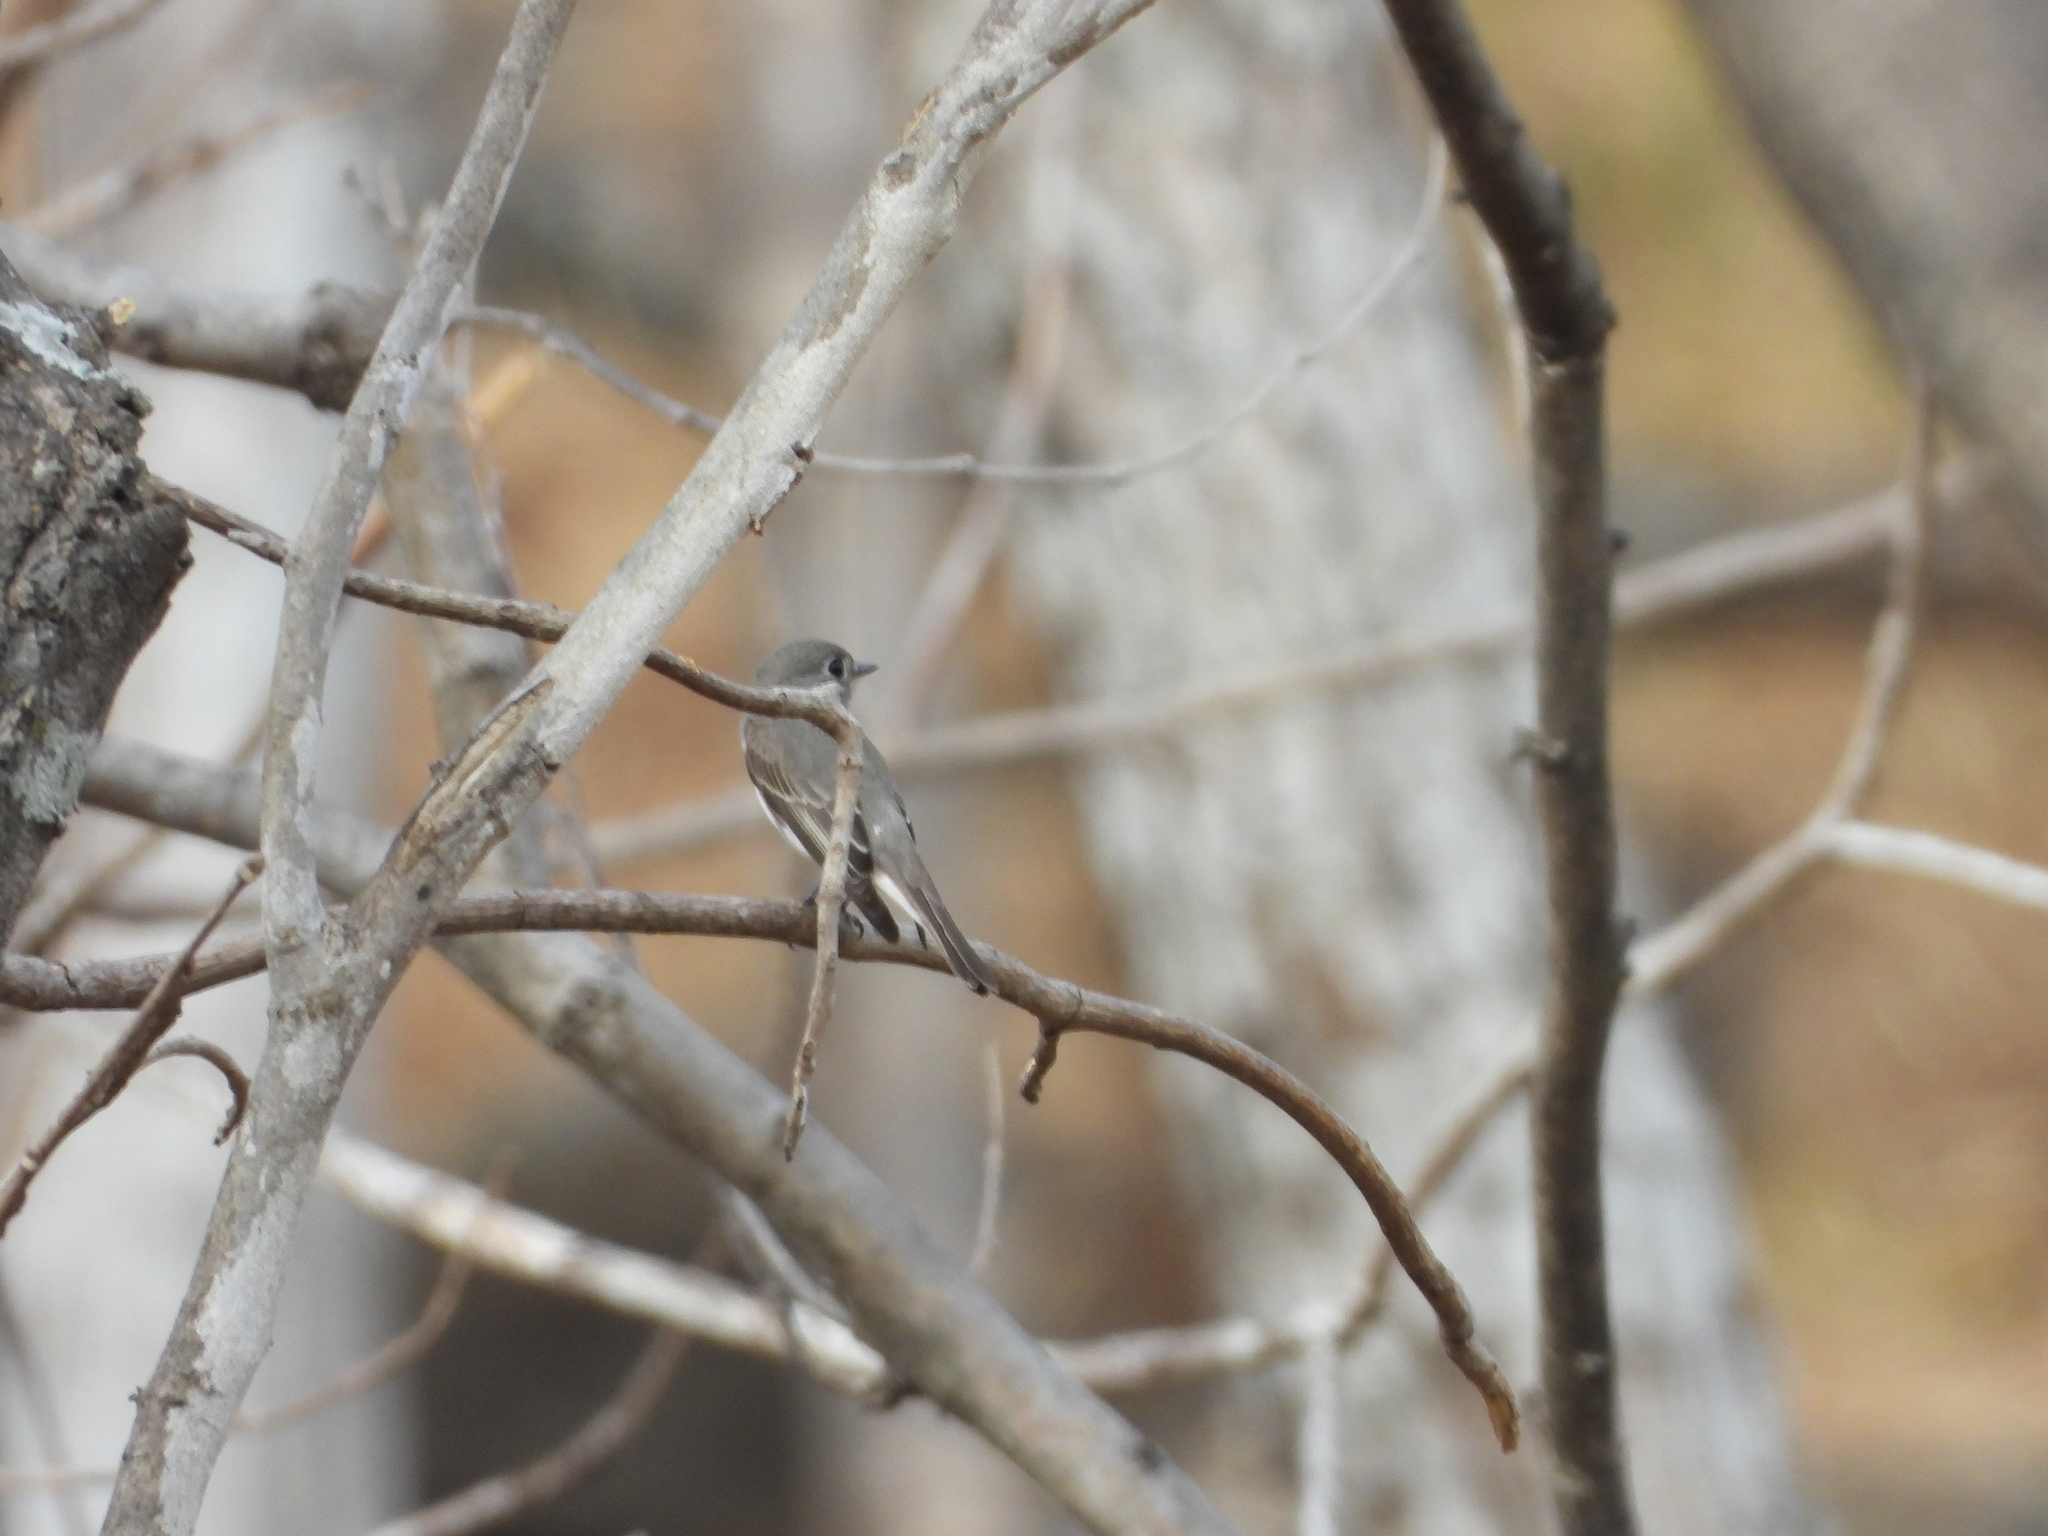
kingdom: Animalia
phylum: Chordata
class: Aves
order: Passeriformes
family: Muscicapidae
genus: Muscicapa
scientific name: Muscicapa latirostris
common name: Asian brown flycatcher
